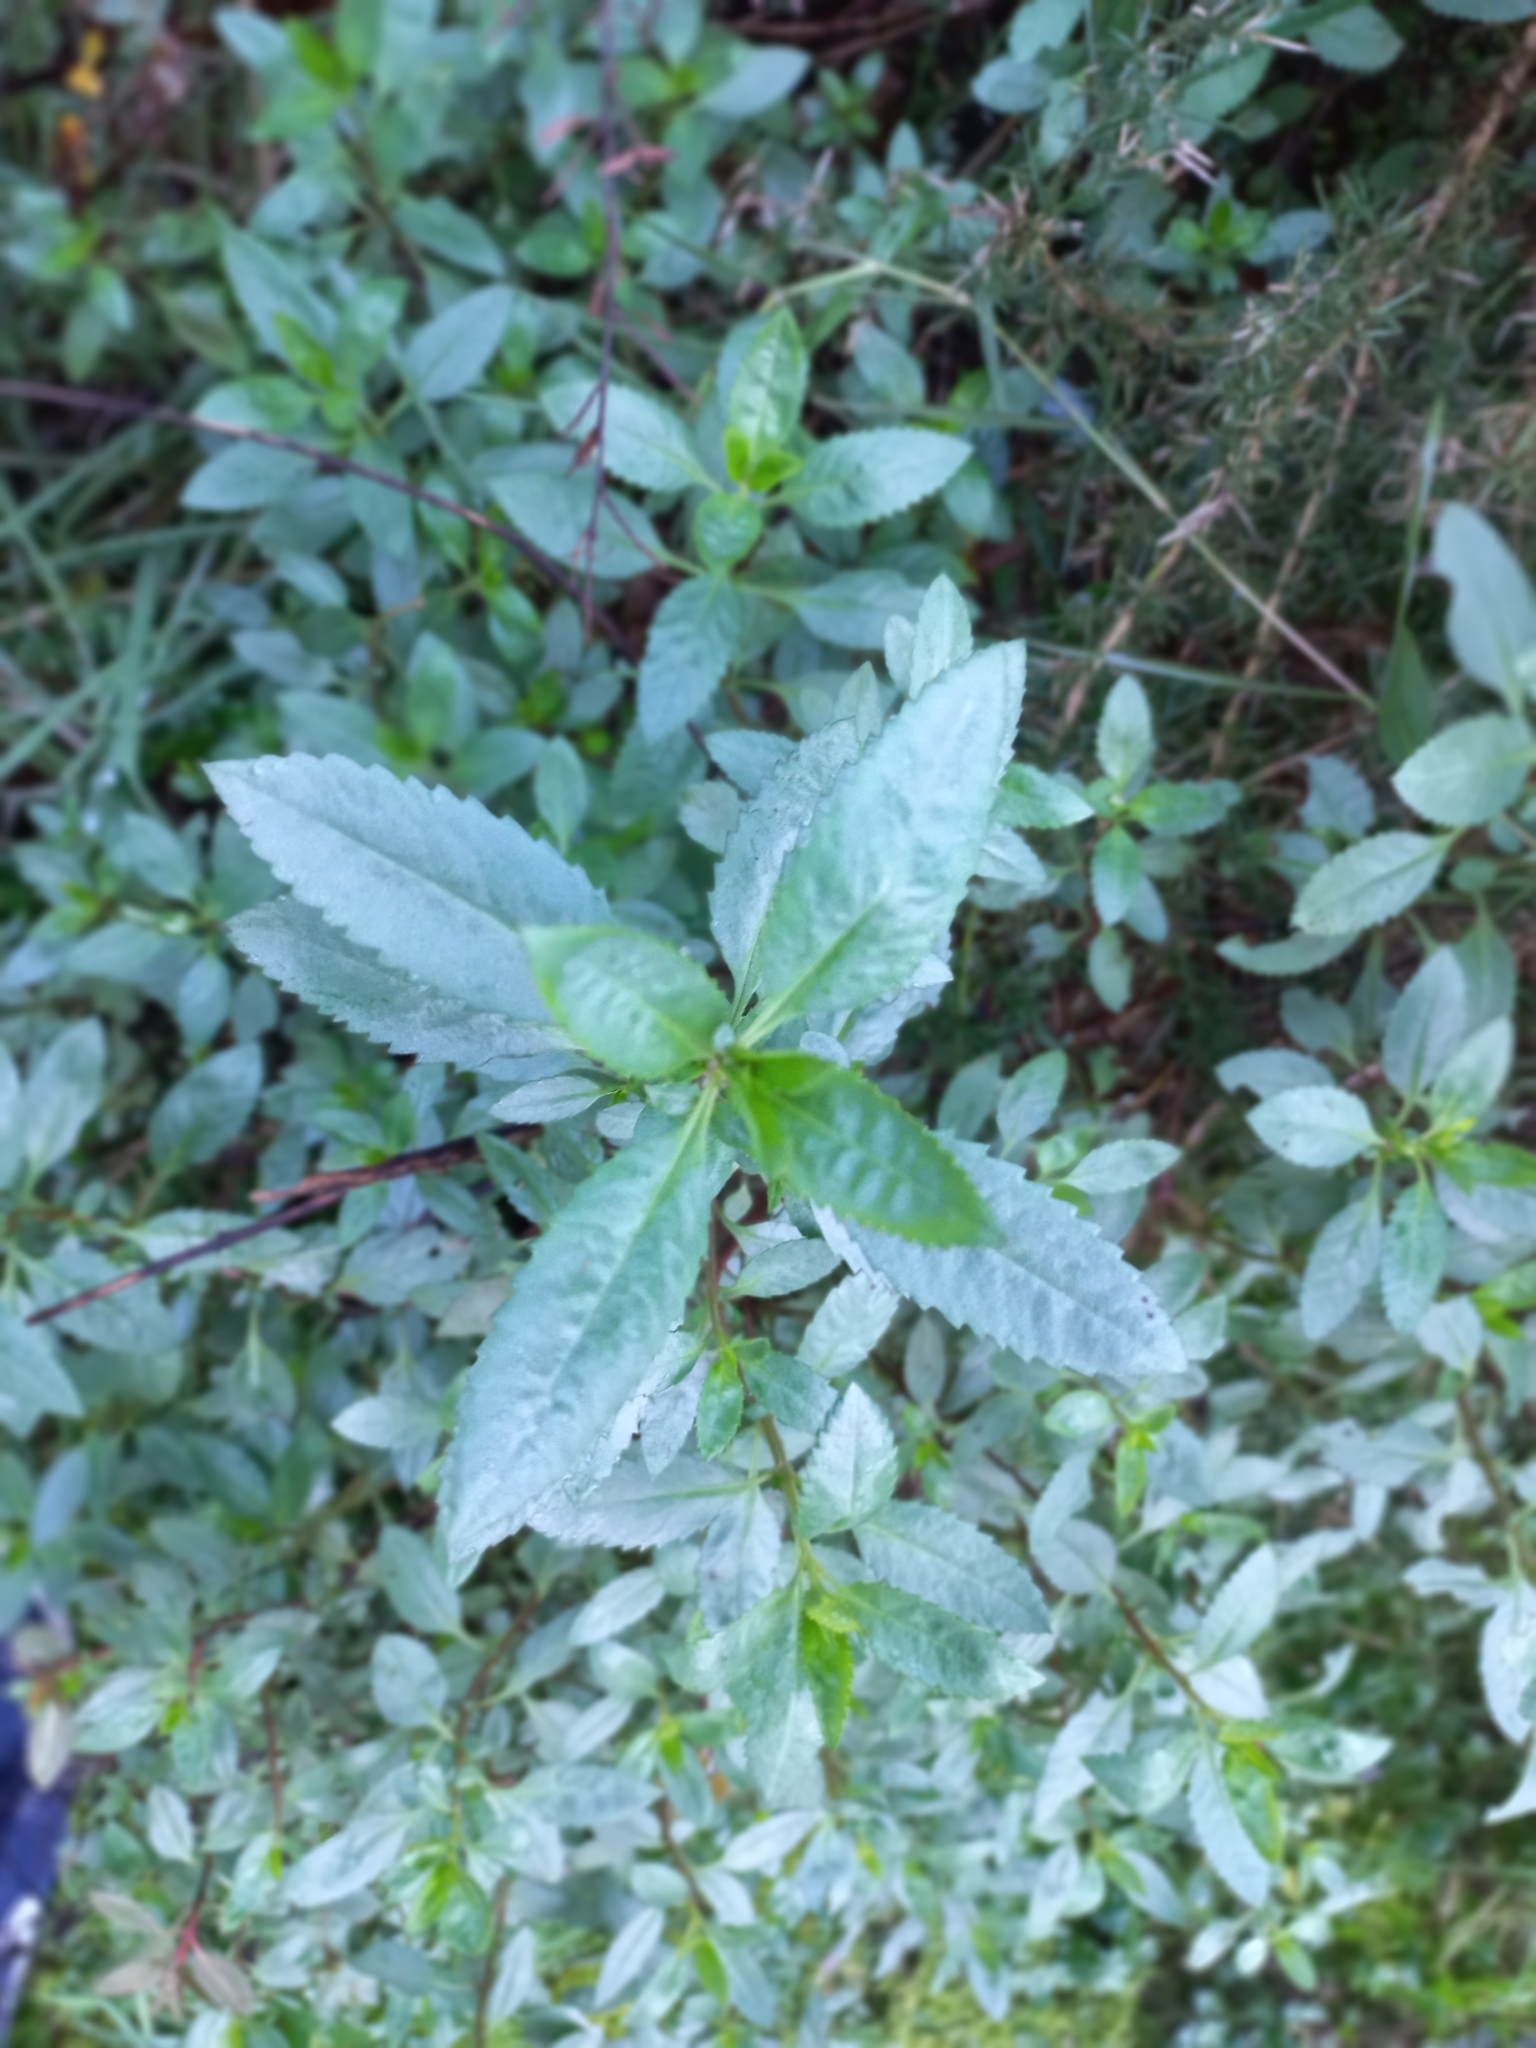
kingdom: Plantae
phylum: Tracheophyta
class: Magnoliopsida
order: Saxifragales
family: Haloragaceae
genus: Haloragis
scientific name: Haloragis erecta
